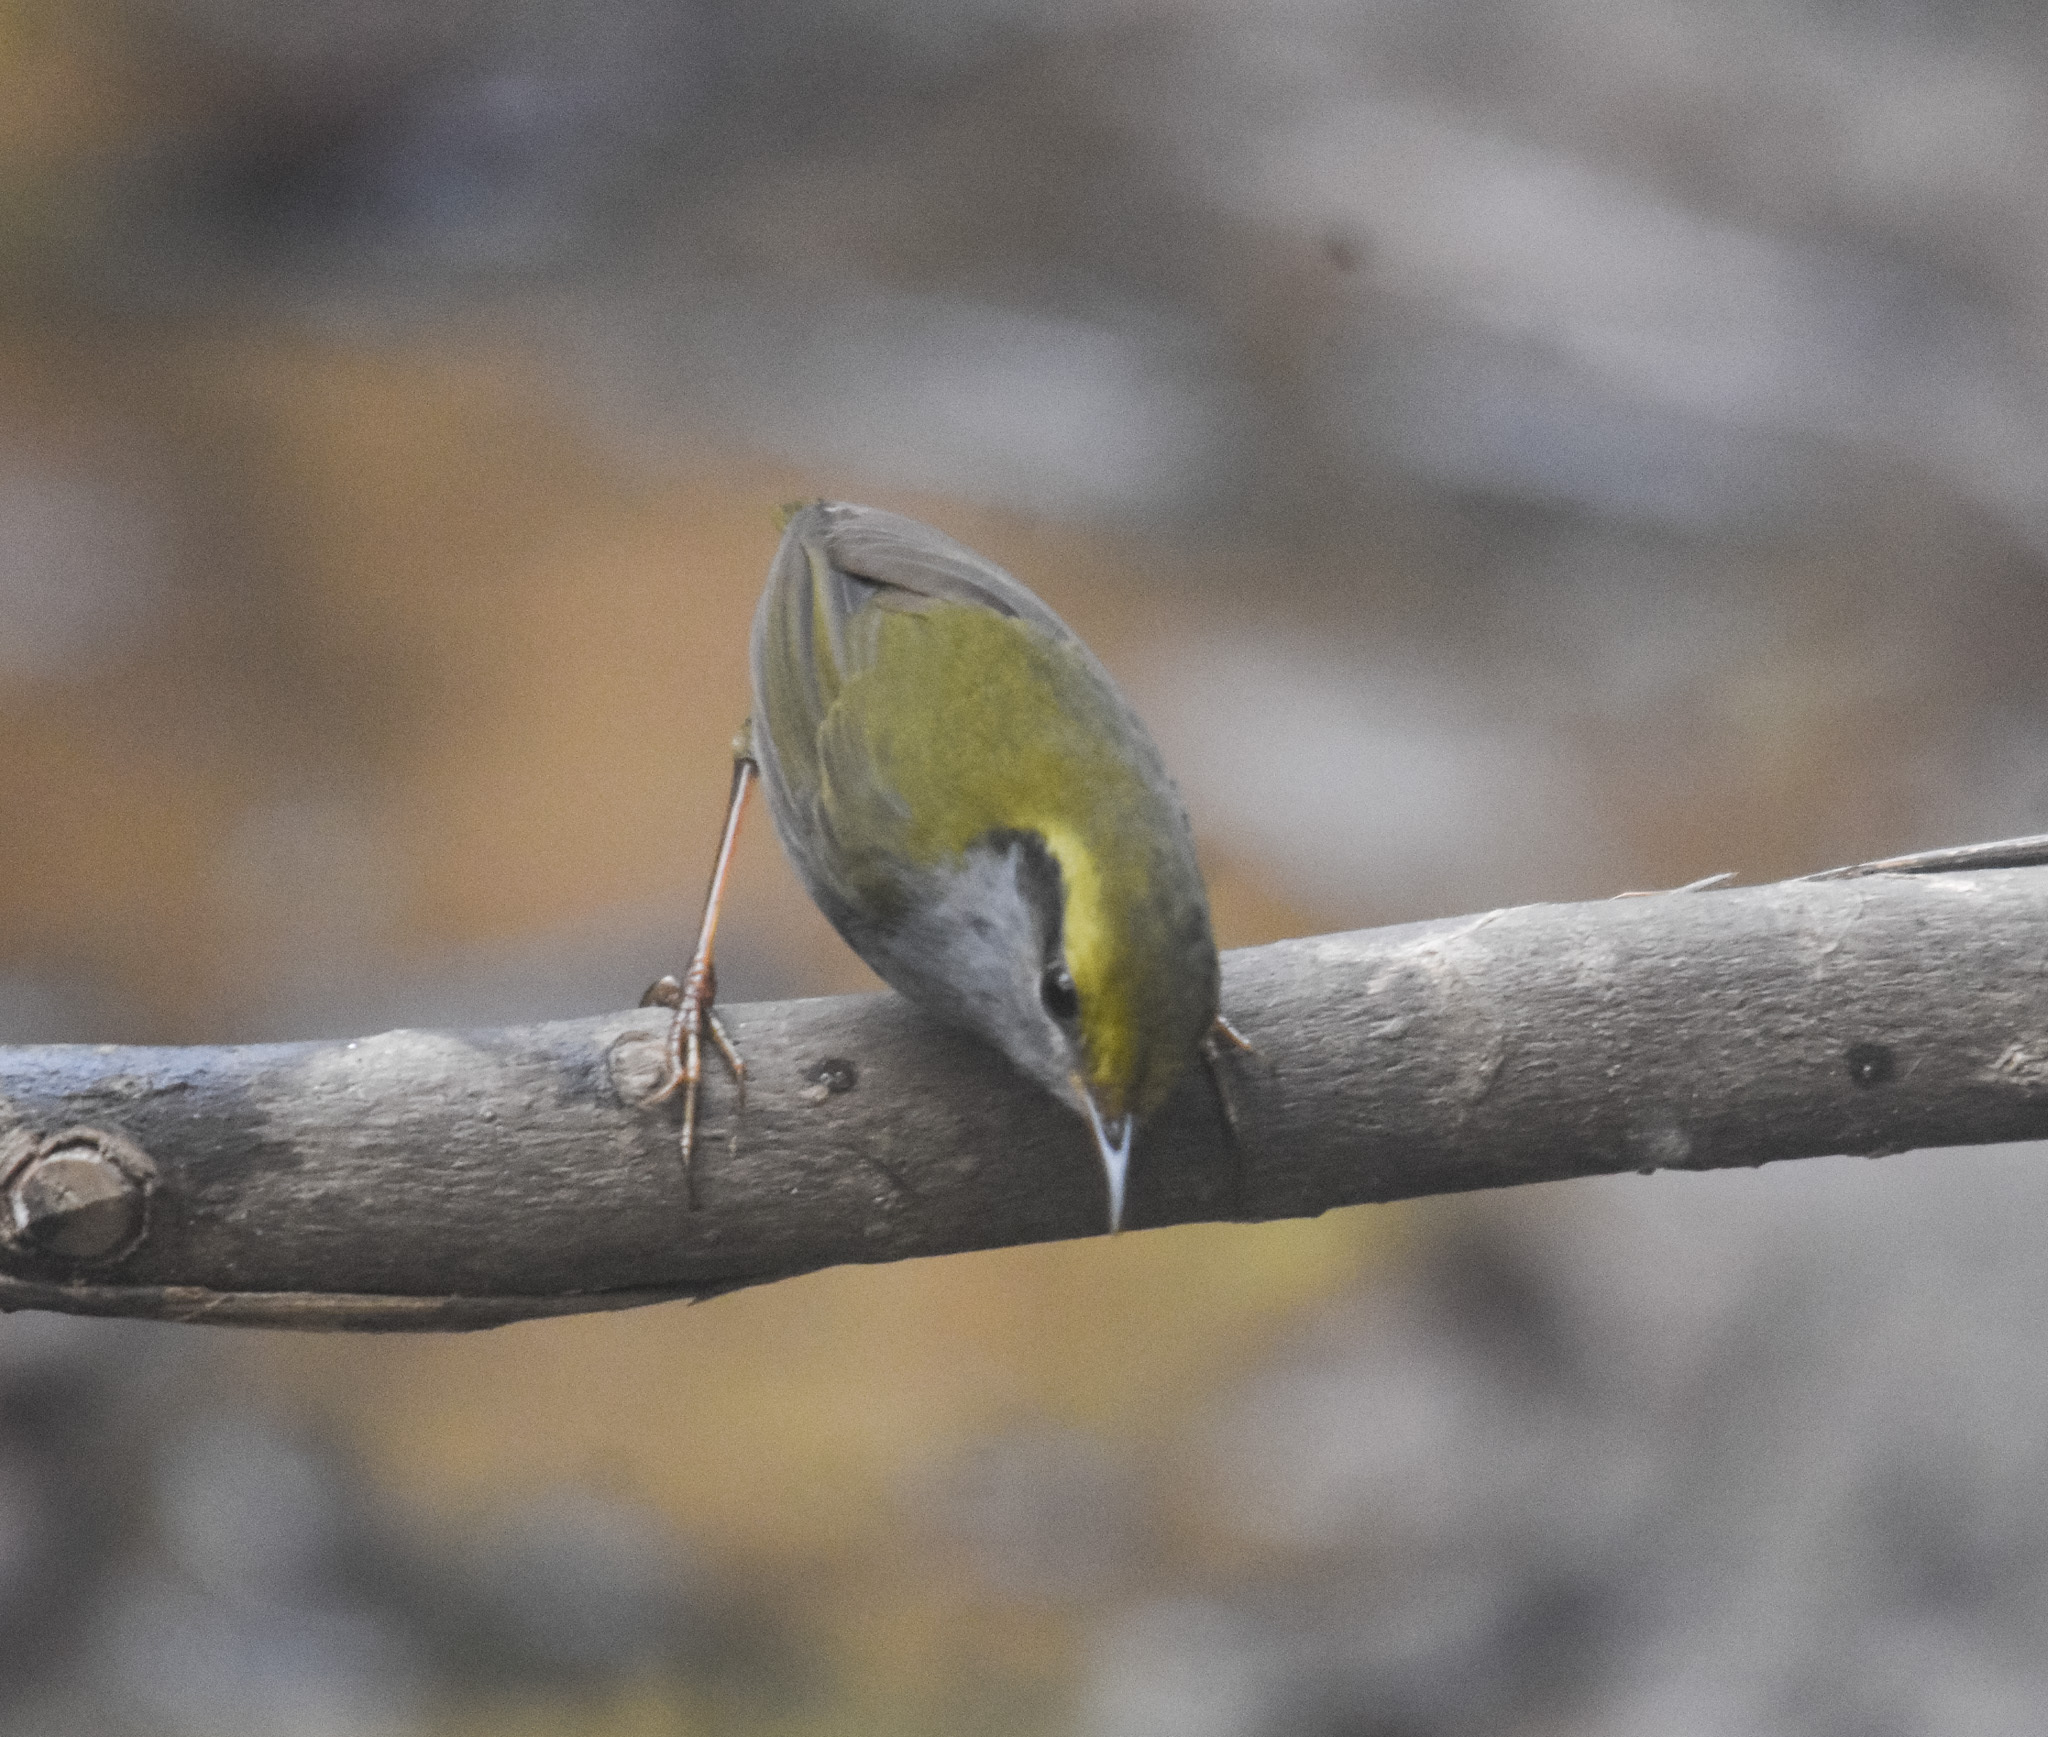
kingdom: Animalia
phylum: Chordata
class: Aves
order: Passeriformes
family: Cettiidae
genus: Tesia
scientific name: Tesia cyaniventer
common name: Grey-bellied tesia
